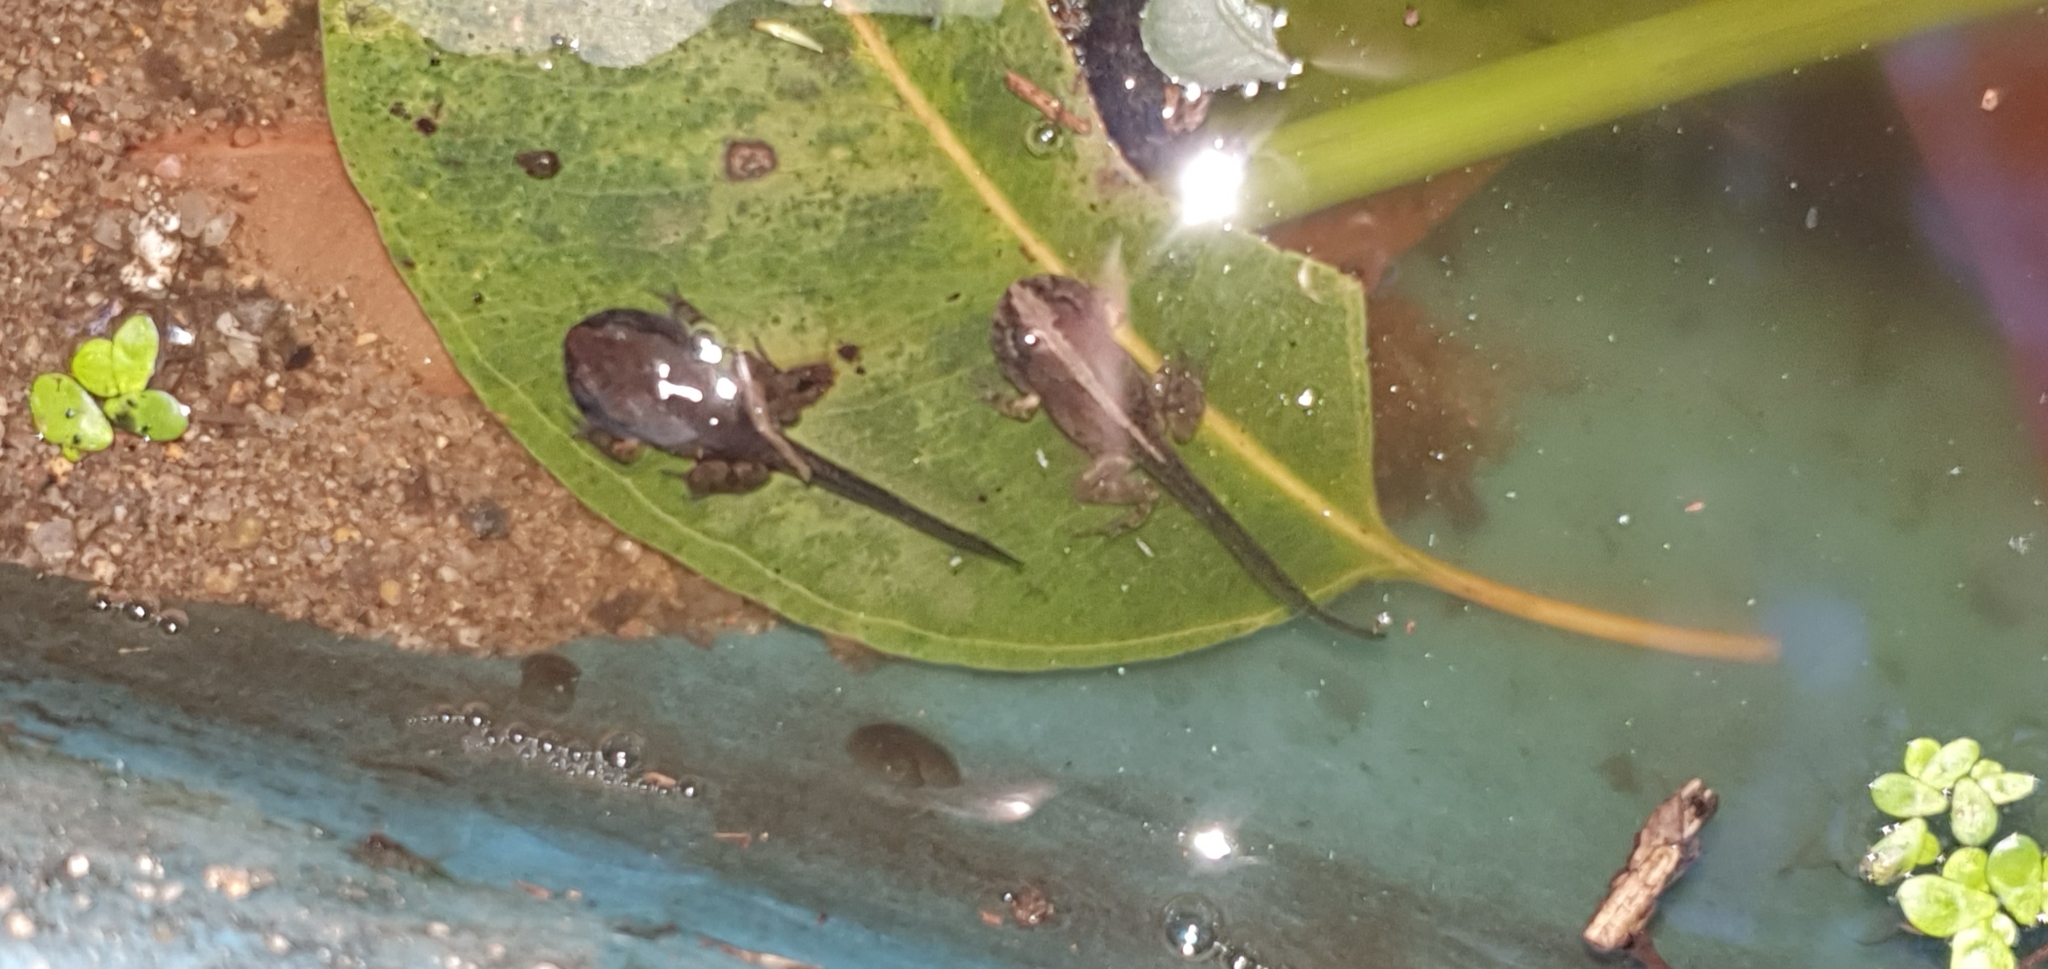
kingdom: Animalia
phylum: Chordata
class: Amphibia
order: Anura
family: Limnodynastidae
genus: Platyplectrum
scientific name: Platyplectrum ornatum
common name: Ornate burrowing frog
